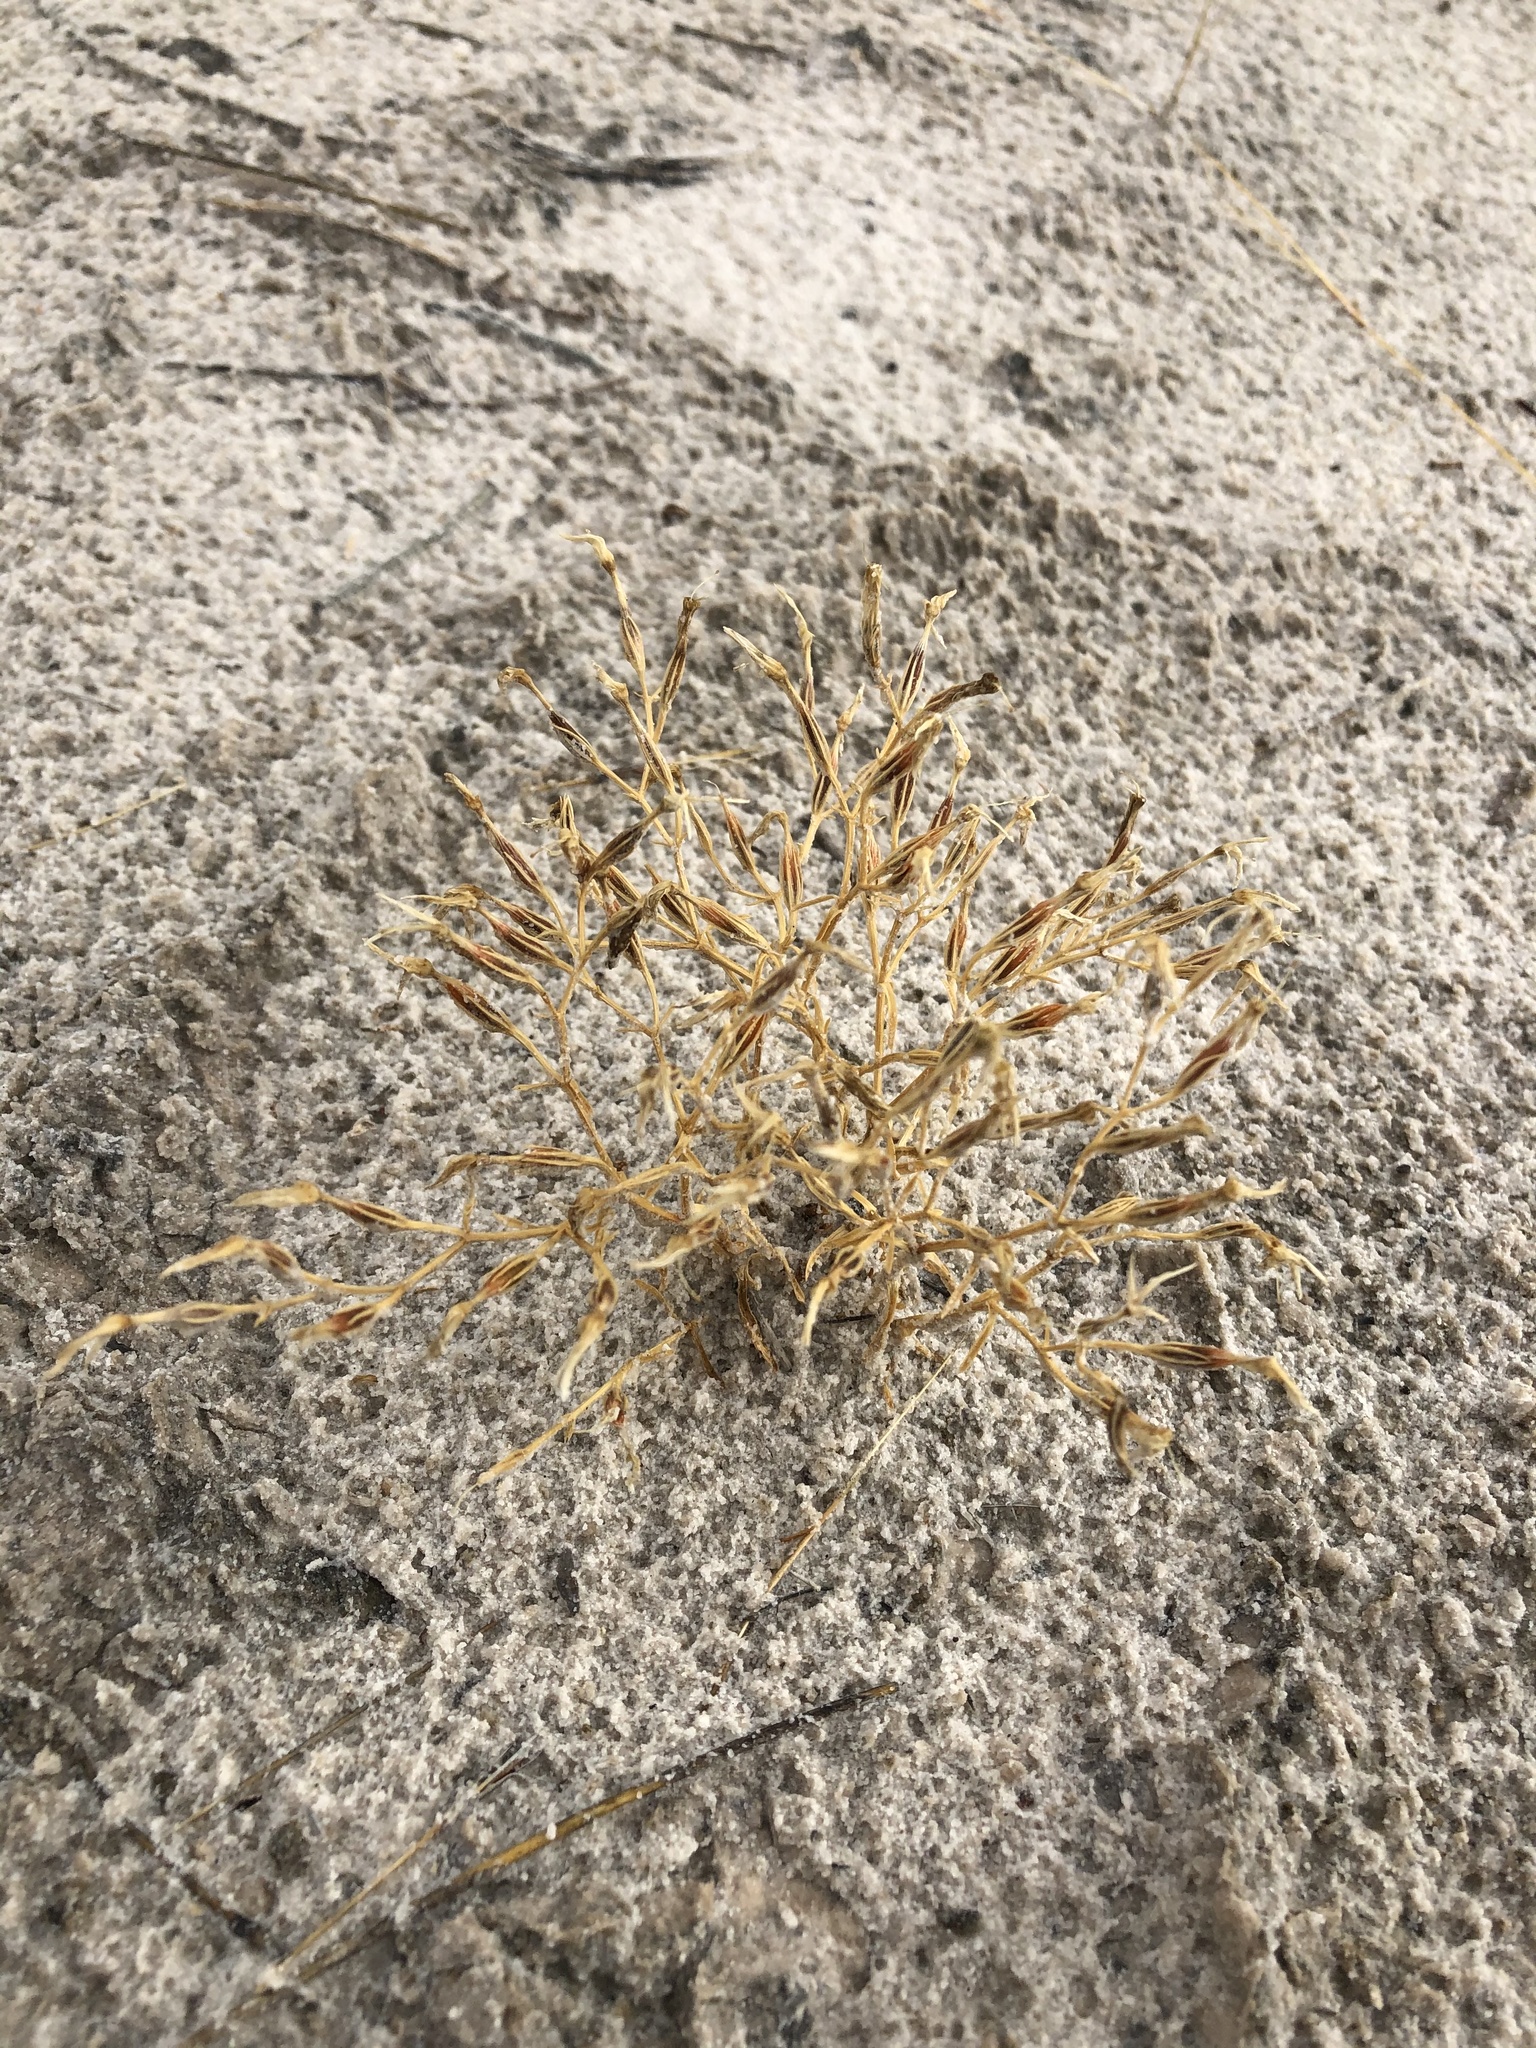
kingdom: Plantae
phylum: Tracheophyta
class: Magnoliopsida
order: Gentianales
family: Gentianaceae
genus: Zeltnera
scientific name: Zeltnera maryanniana
